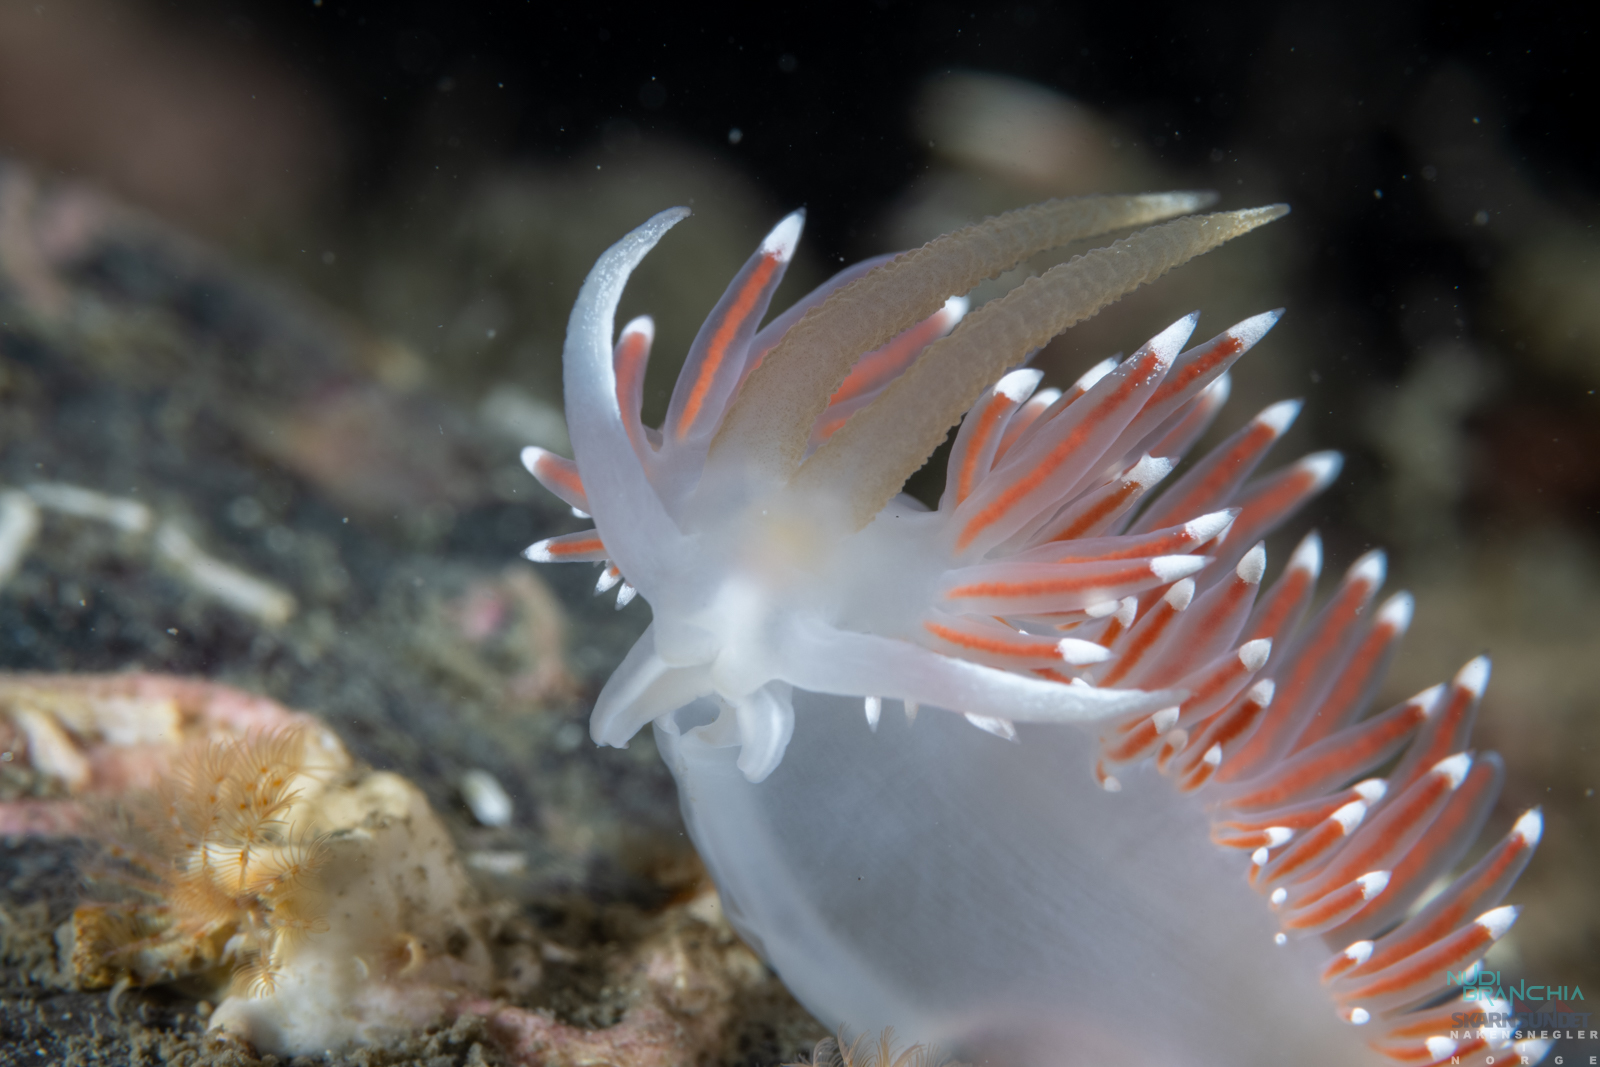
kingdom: Animalia
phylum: Mollusca
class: Gastropoda
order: Nudibranchia
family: Coryphellidae
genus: Coryphella
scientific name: Coryphella browni
